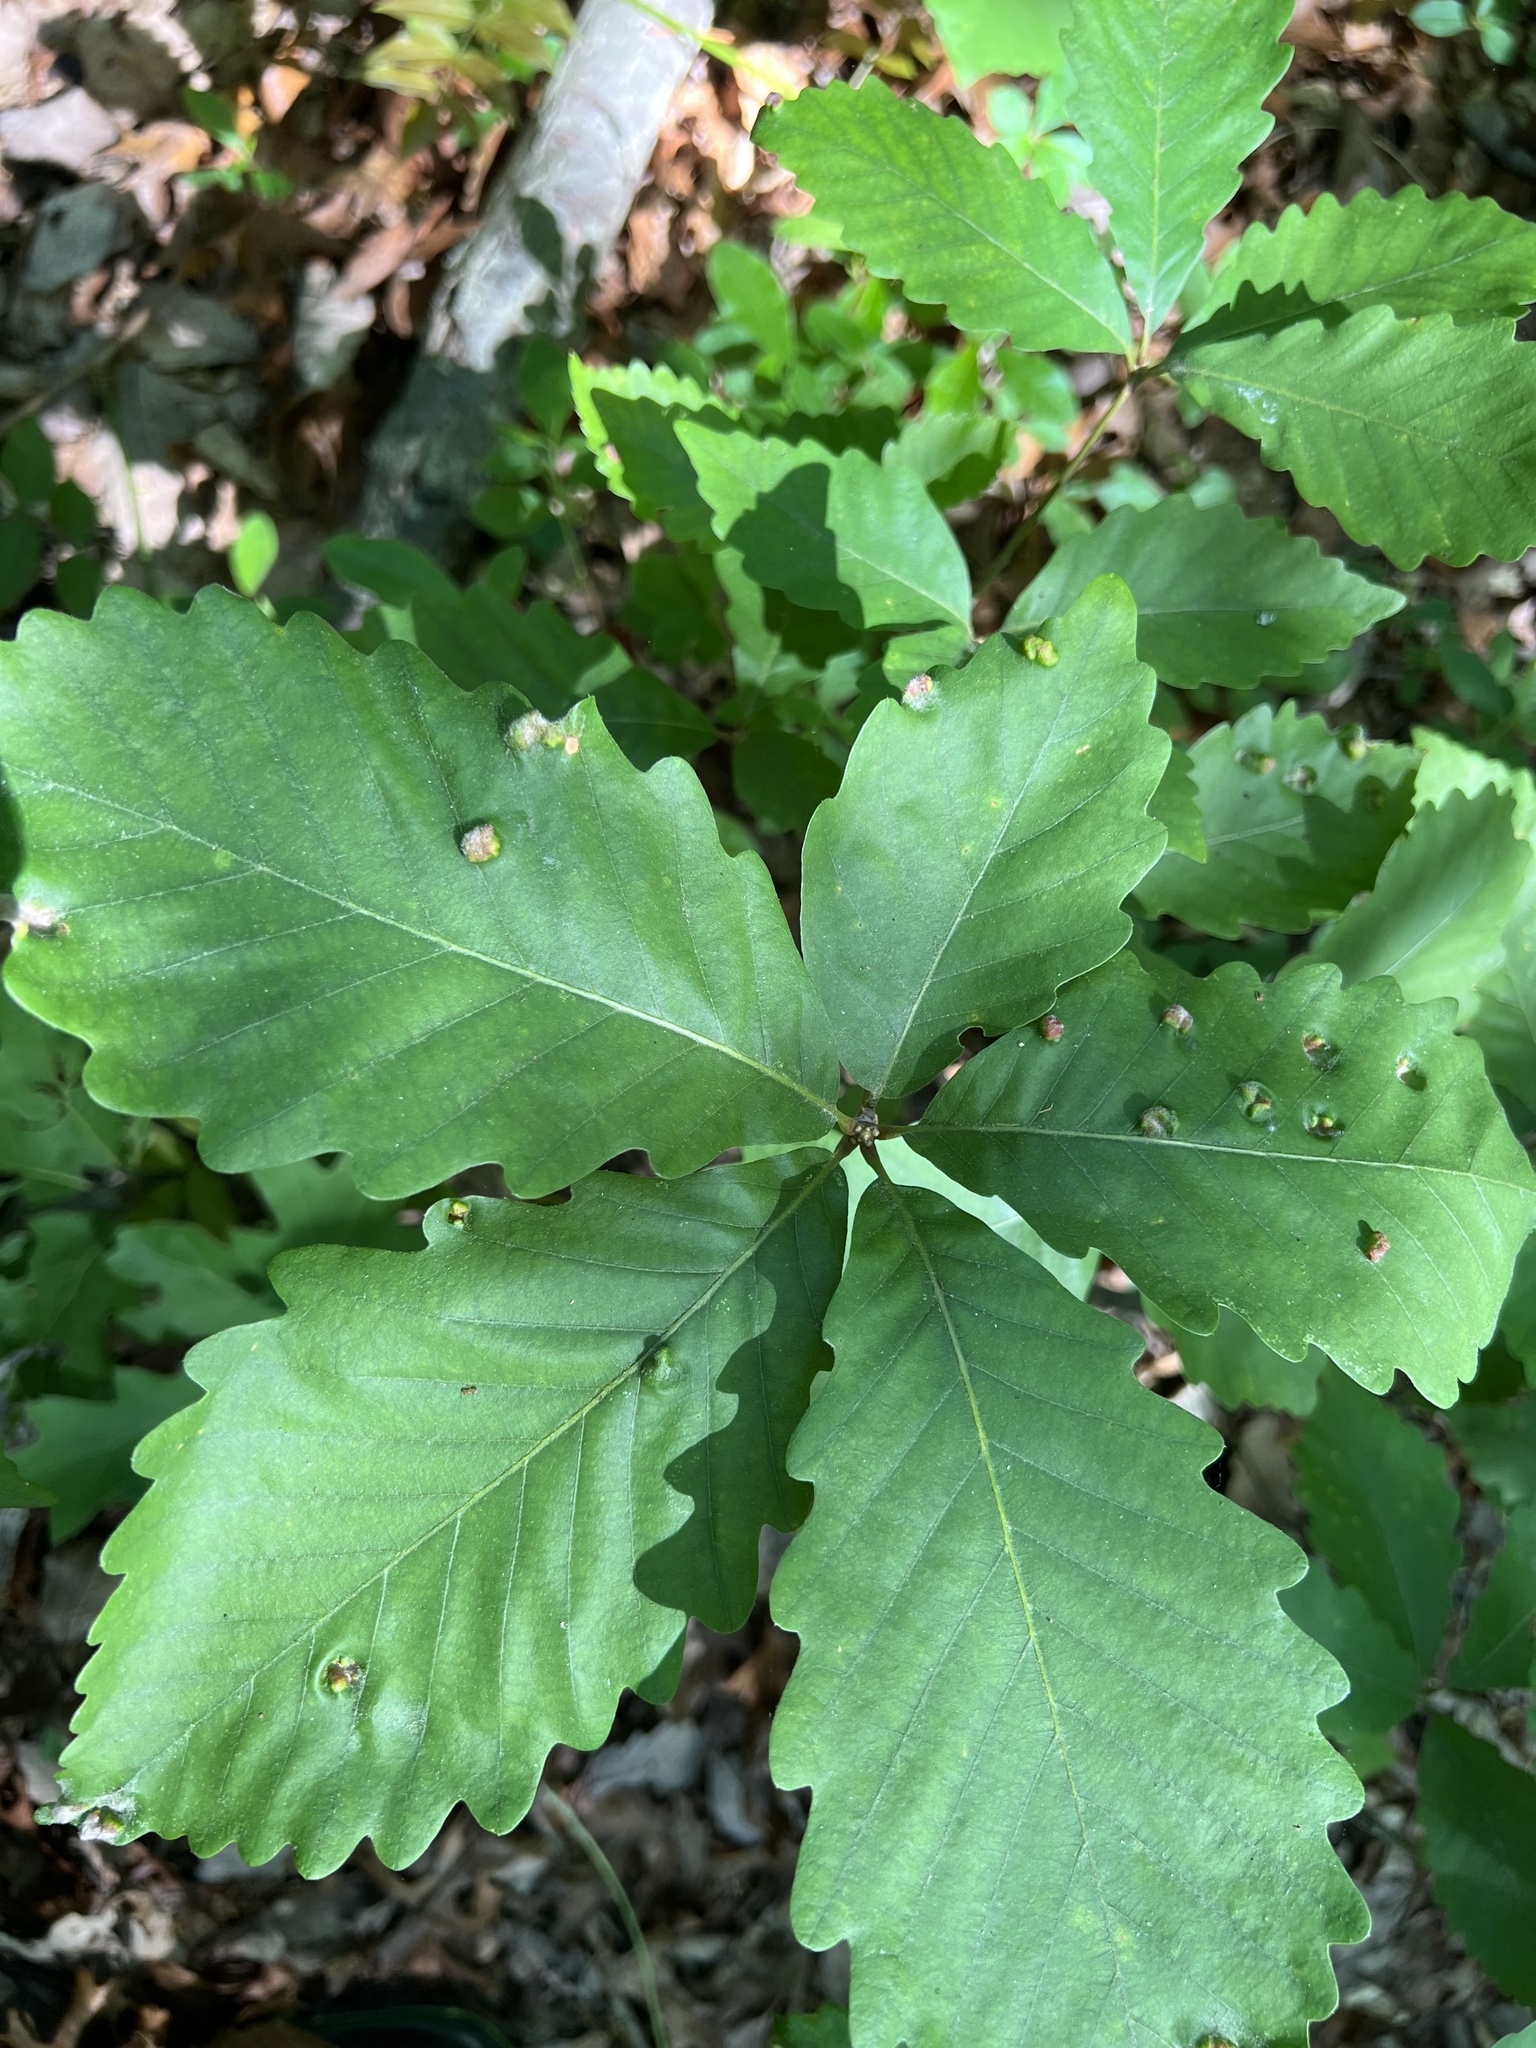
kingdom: Animalia
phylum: Arthropoda
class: Arachnida
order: Trombidiformes
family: Eriophyidae
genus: Aceria
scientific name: Aceria
